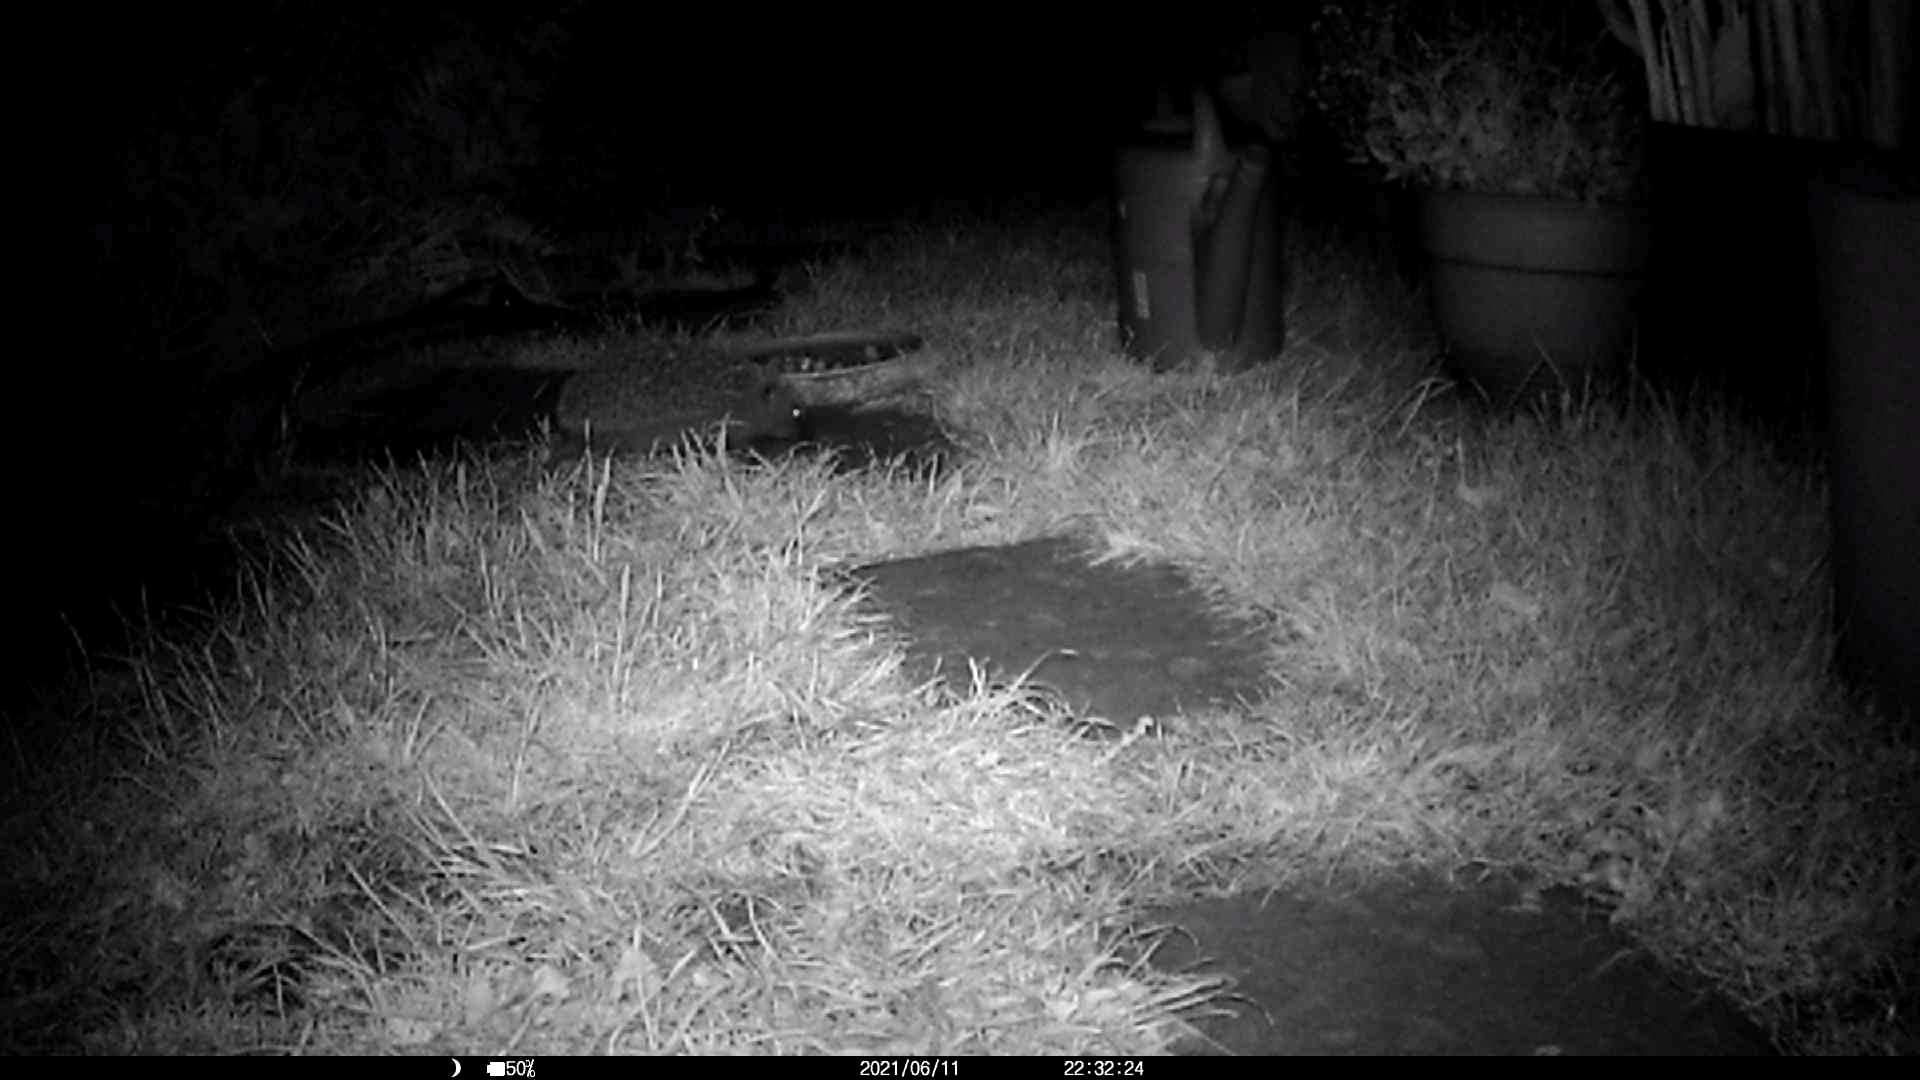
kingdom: Animalia
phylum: Chordata
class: Mammalia
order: Erinaceomorpha
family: Erinaceidae
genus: Erinaceus
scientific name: Erinaceus europaeus
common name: West european hedgehog
